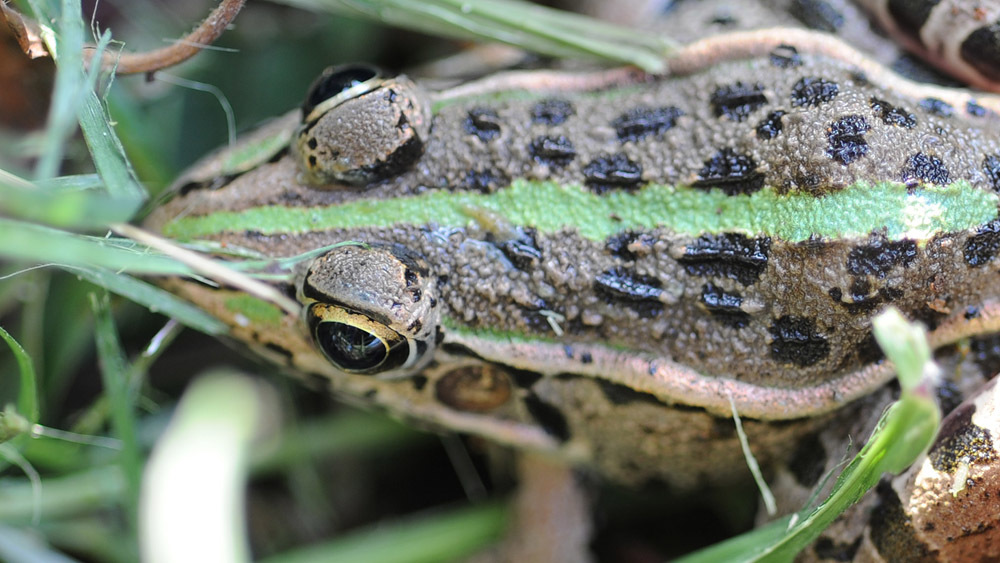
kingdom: Animalia
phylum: Chordata
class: Amphibia
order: Anura
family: Ranidae
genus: Pelophylax
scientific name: Pelophylax nigromaculatus
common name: Black-spotted pond frog
